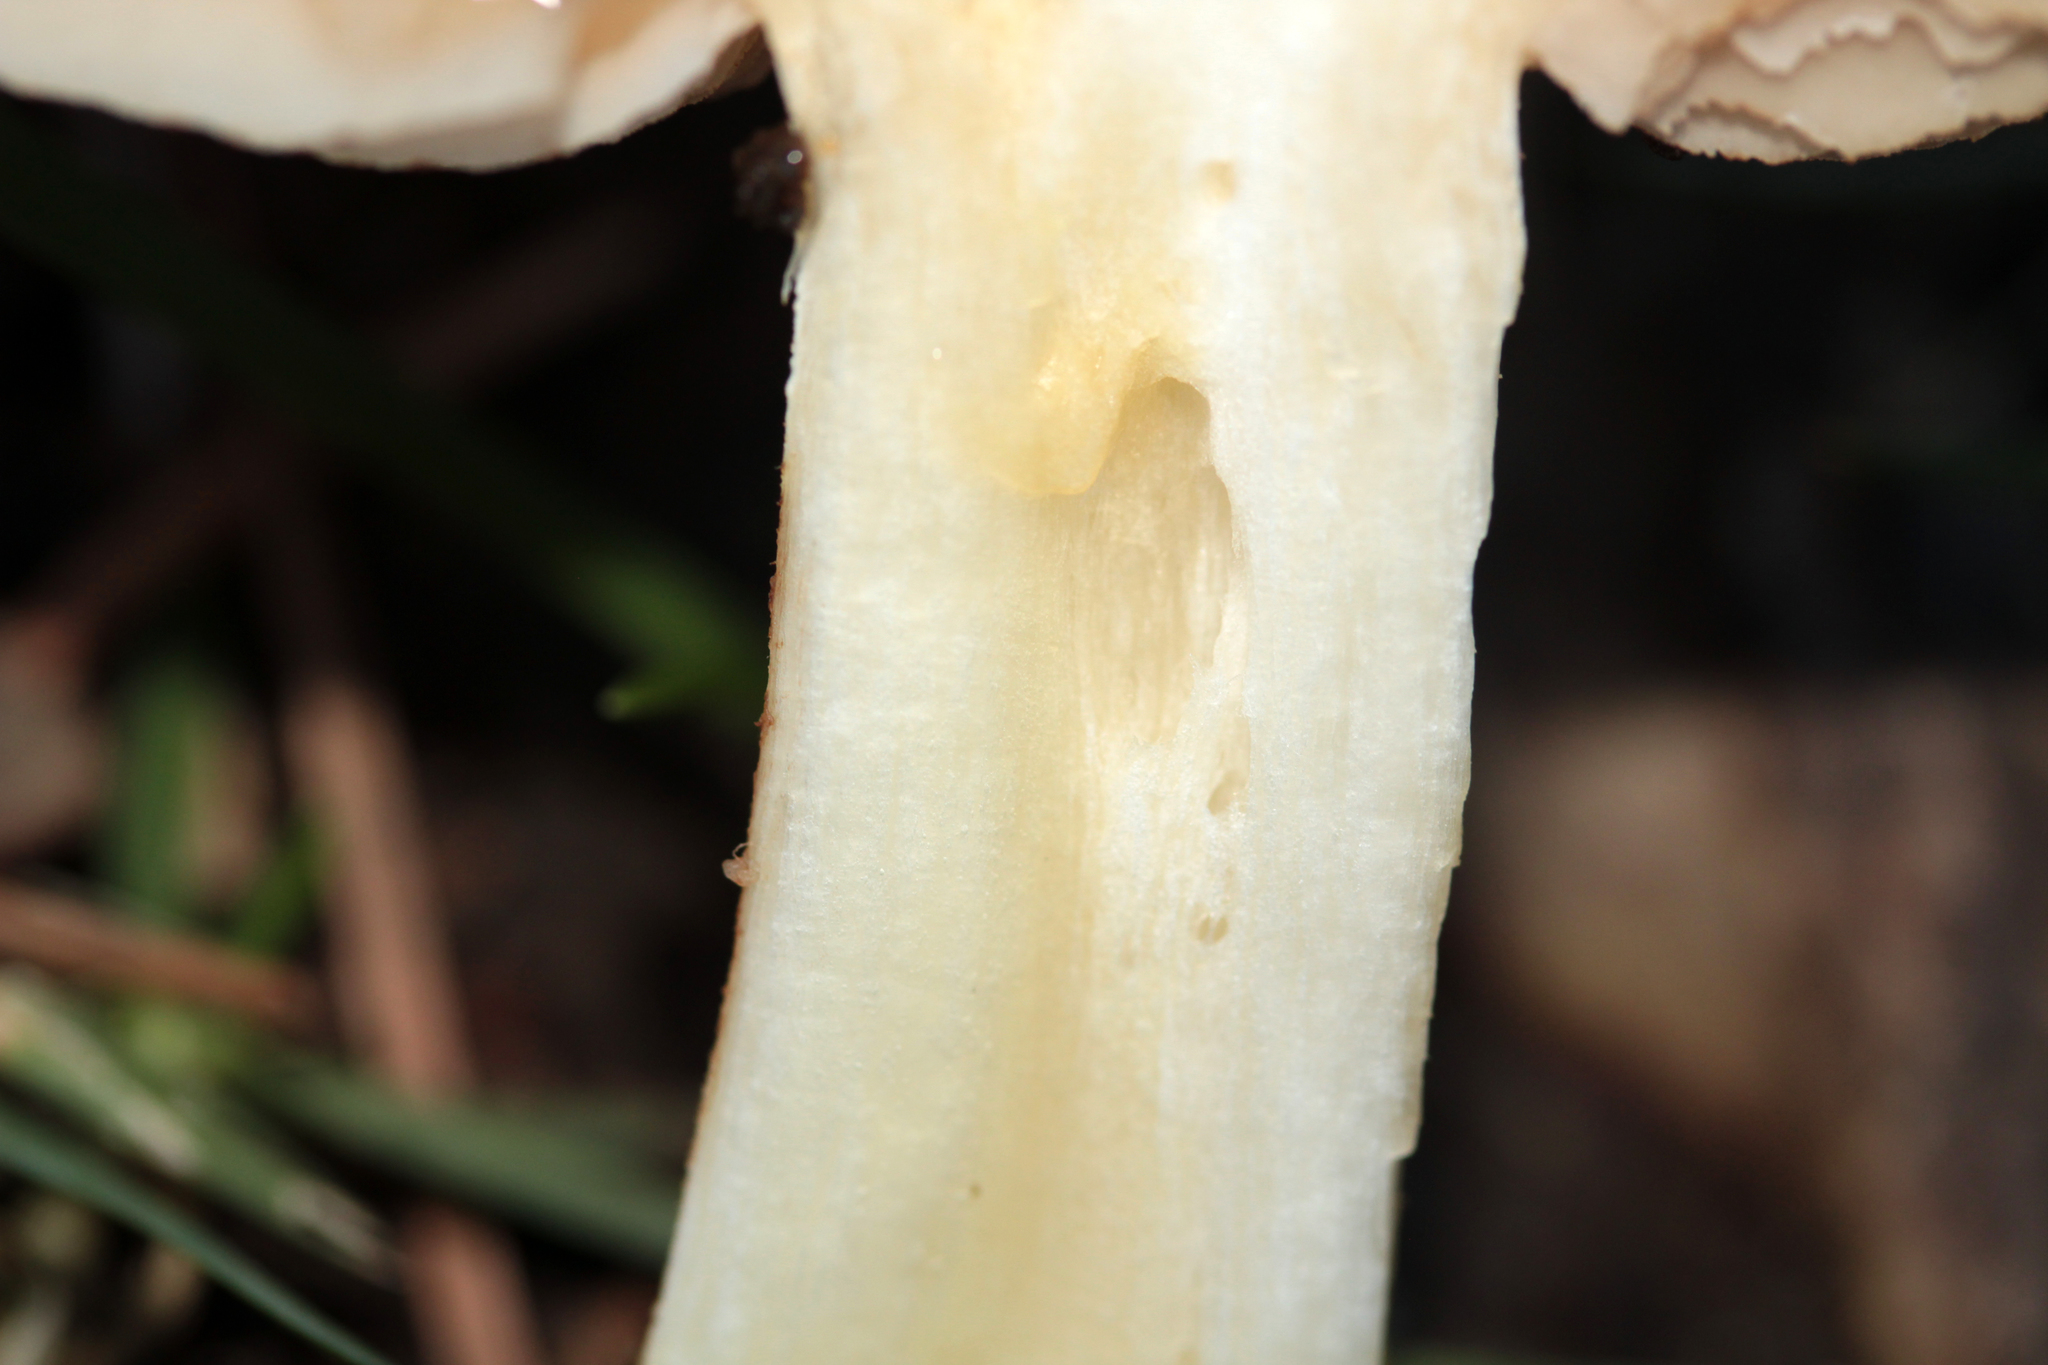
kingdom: Fungi
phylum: Basidiomycota
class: Agaricomycetes
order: Agaricales
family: Hymenogastraceae
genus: Hebeloma
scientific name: Hebeloma crustuliniforme
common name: Poison pie
